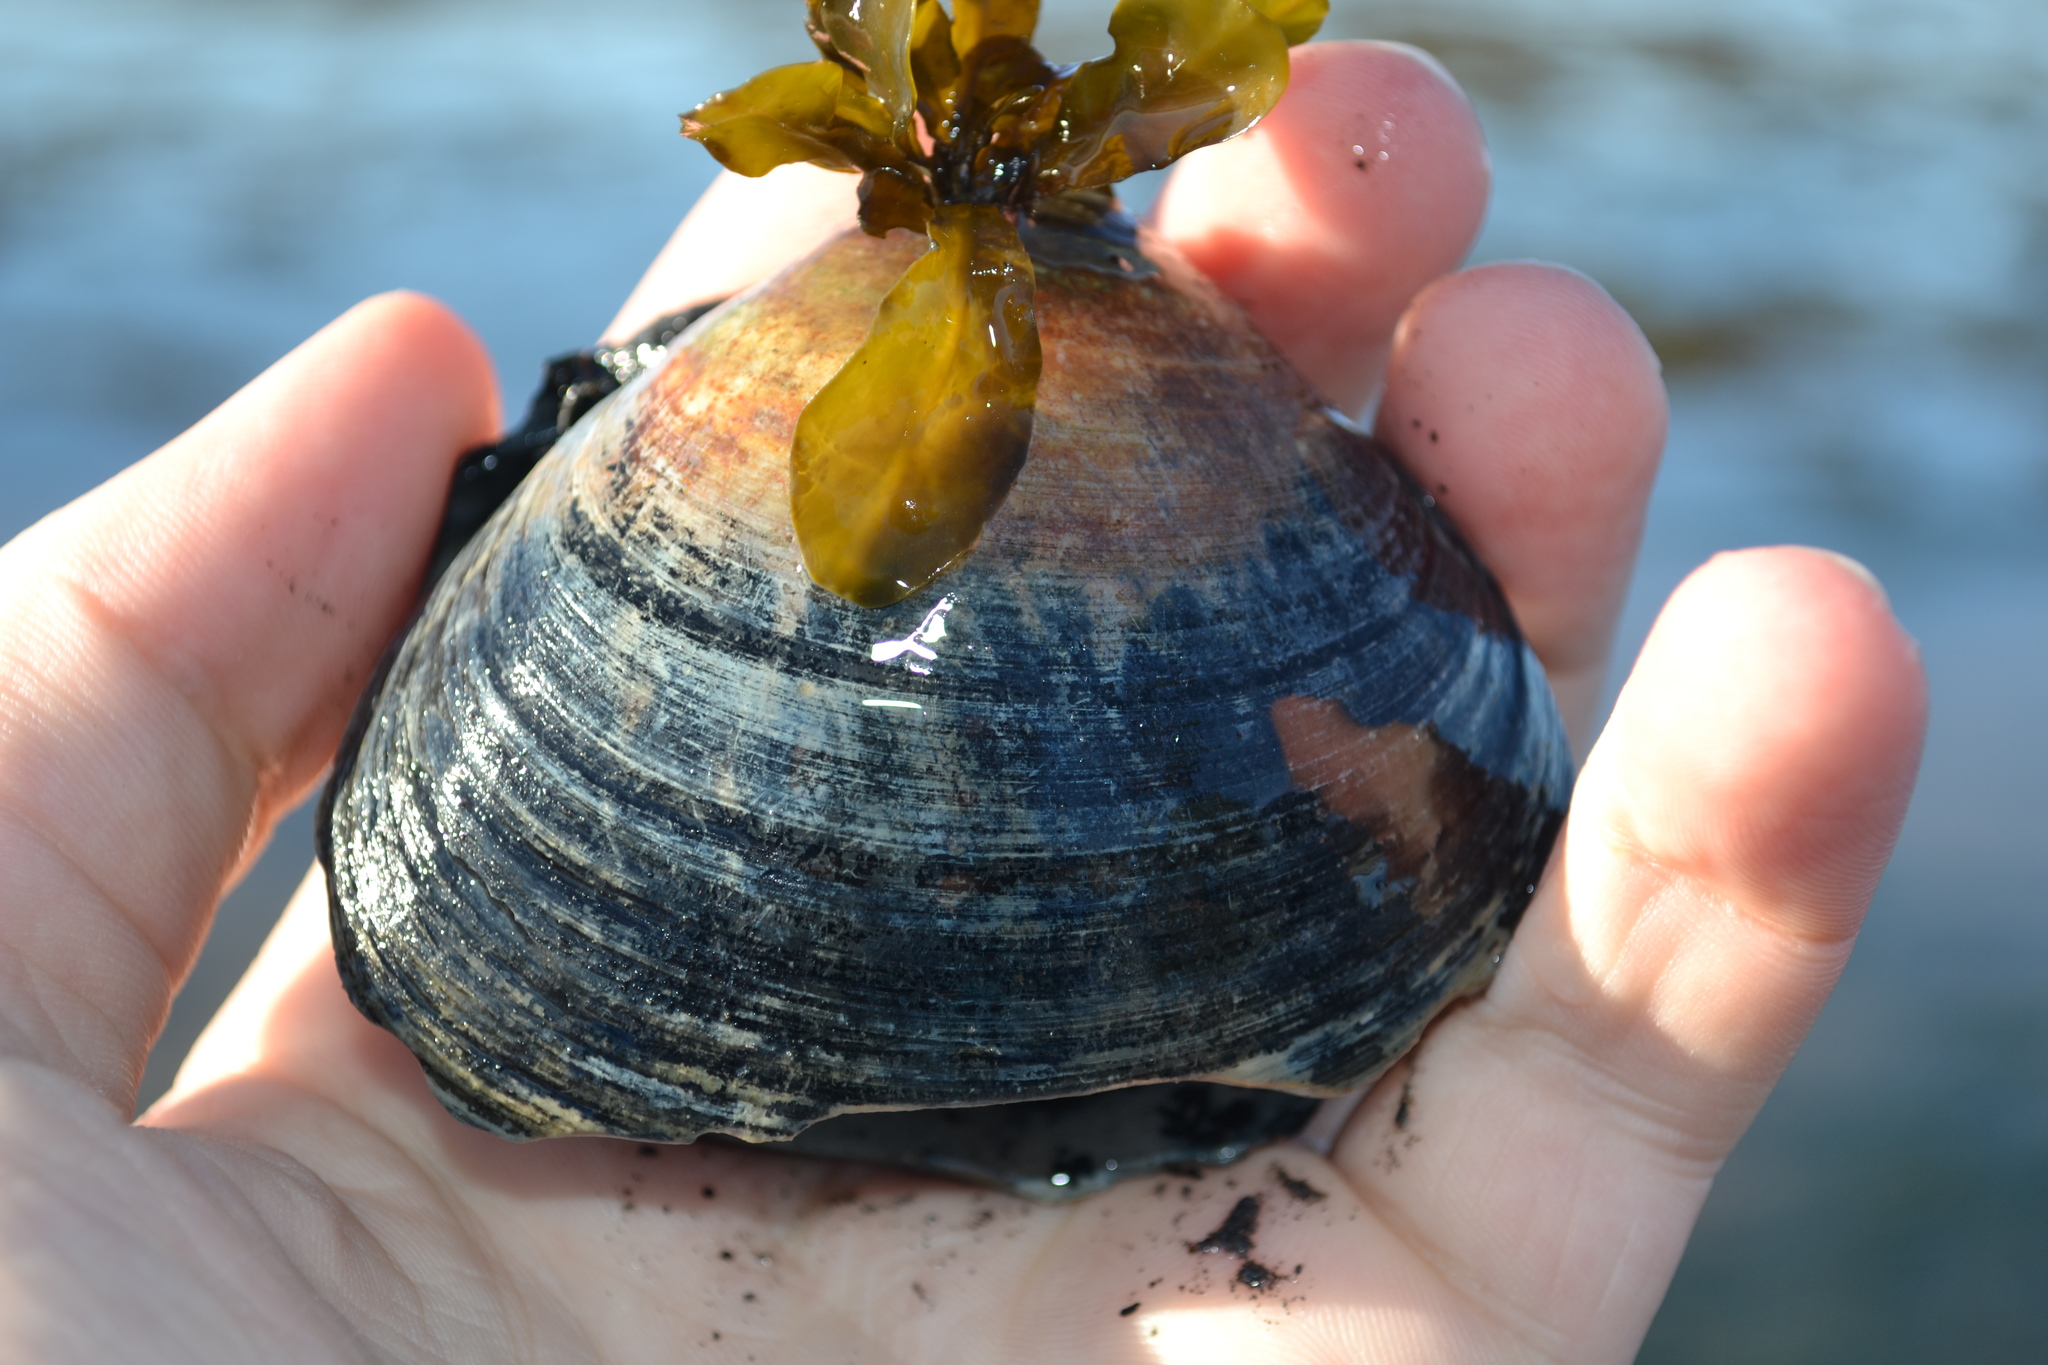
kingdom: Animalia
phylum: Mollusca
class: Bivalvia
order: Cardiida
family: Cardiidae
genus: Serripes
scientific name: Serripes groenlandicus
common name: Greenland cockle
